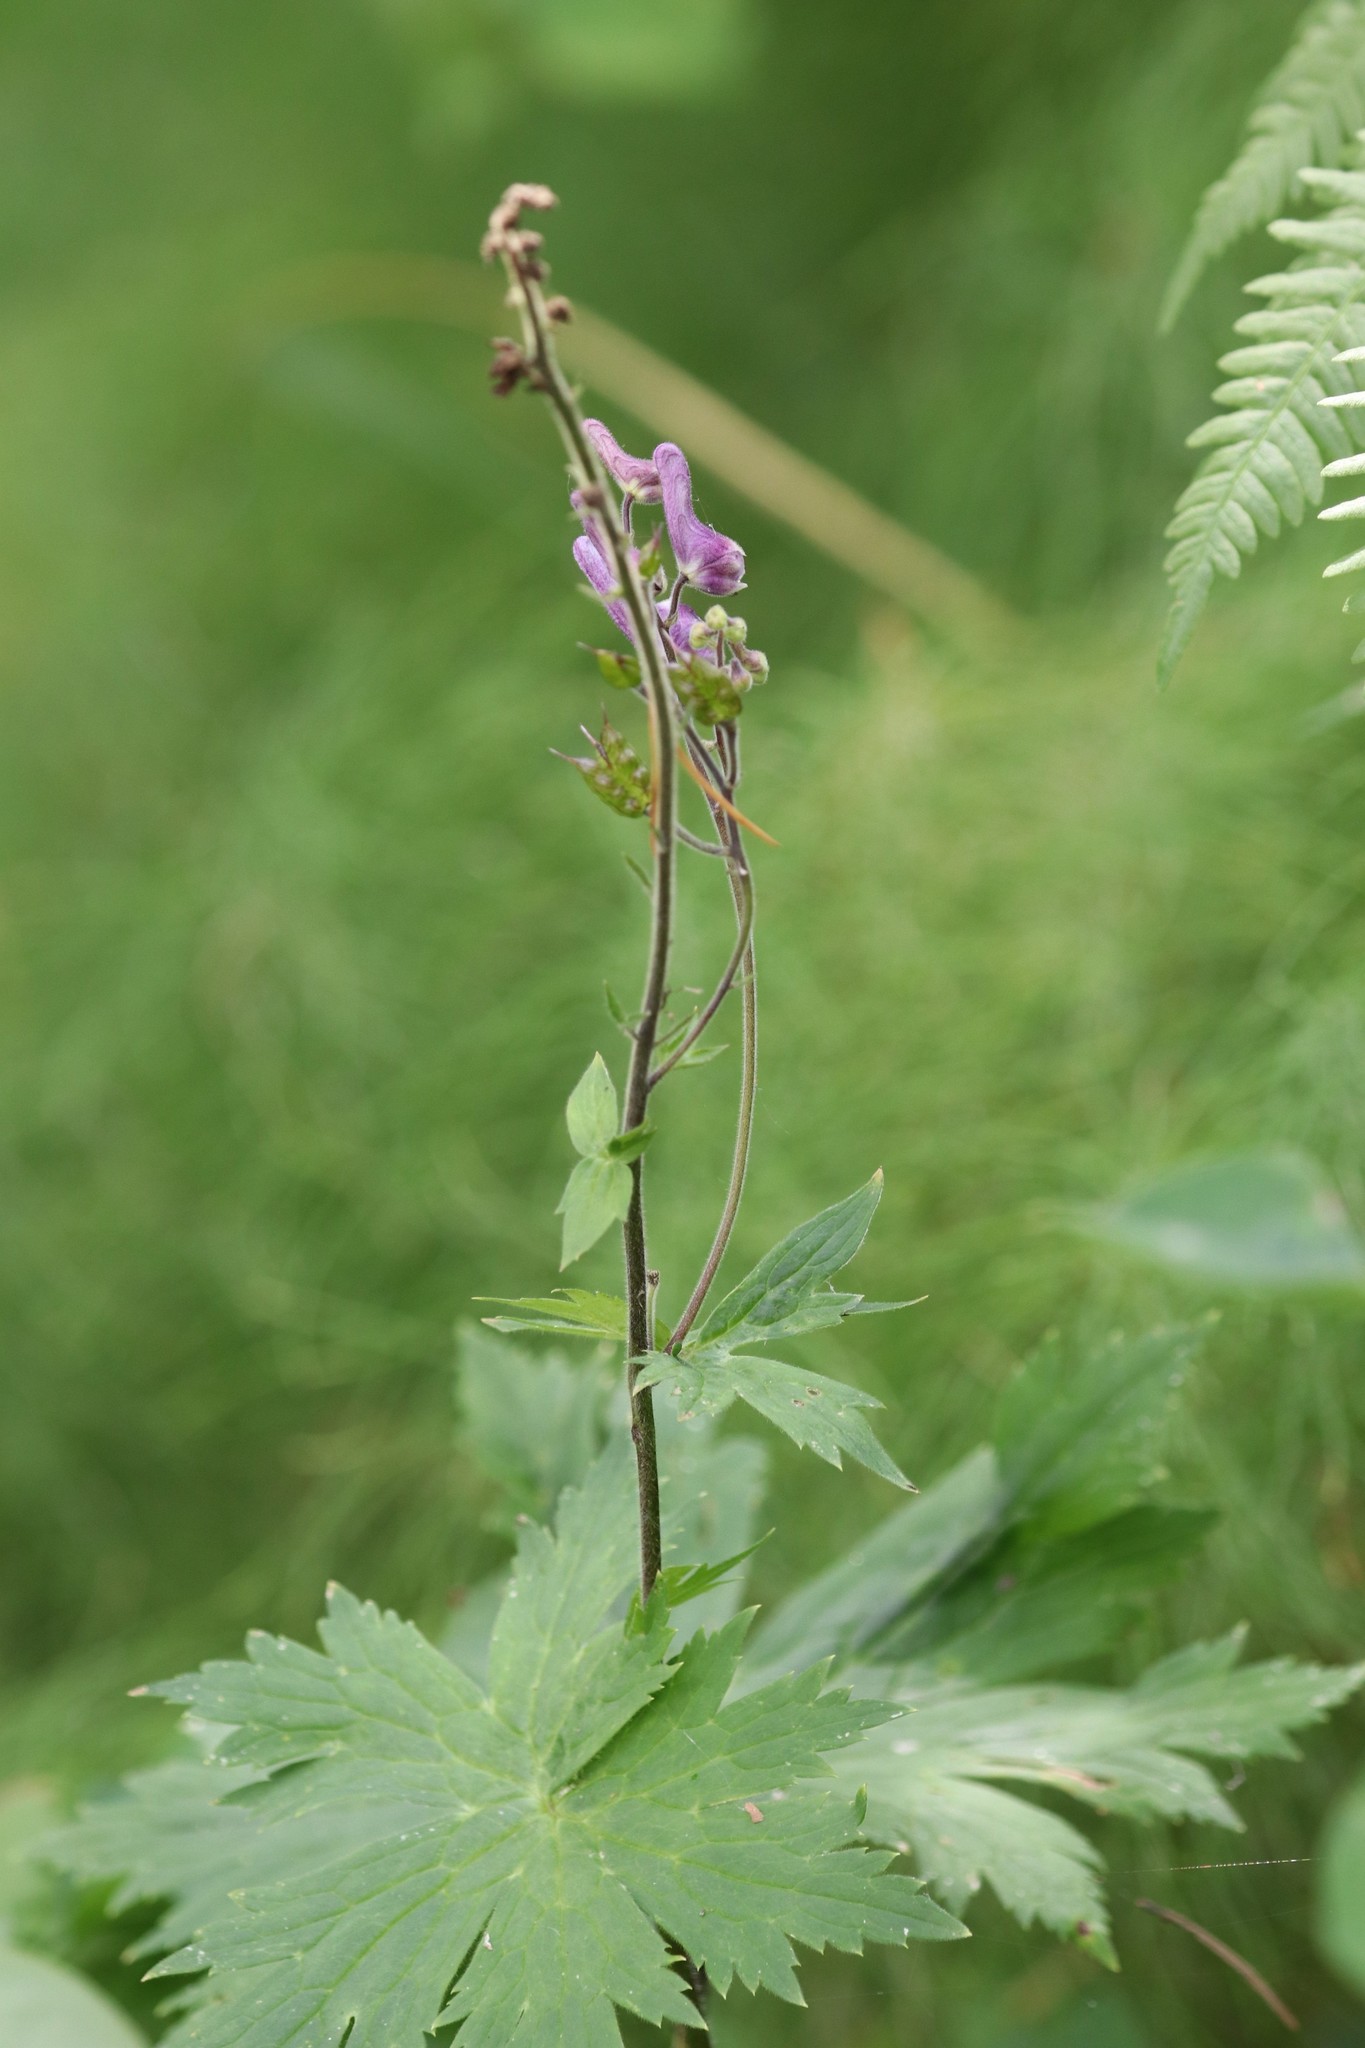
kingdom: Plantae
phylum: Tracheophyta
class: Magnoliopsida
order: Ranunculales
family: Ranunculaceae
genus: Aconitum
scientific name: Aconitum septentrionale
